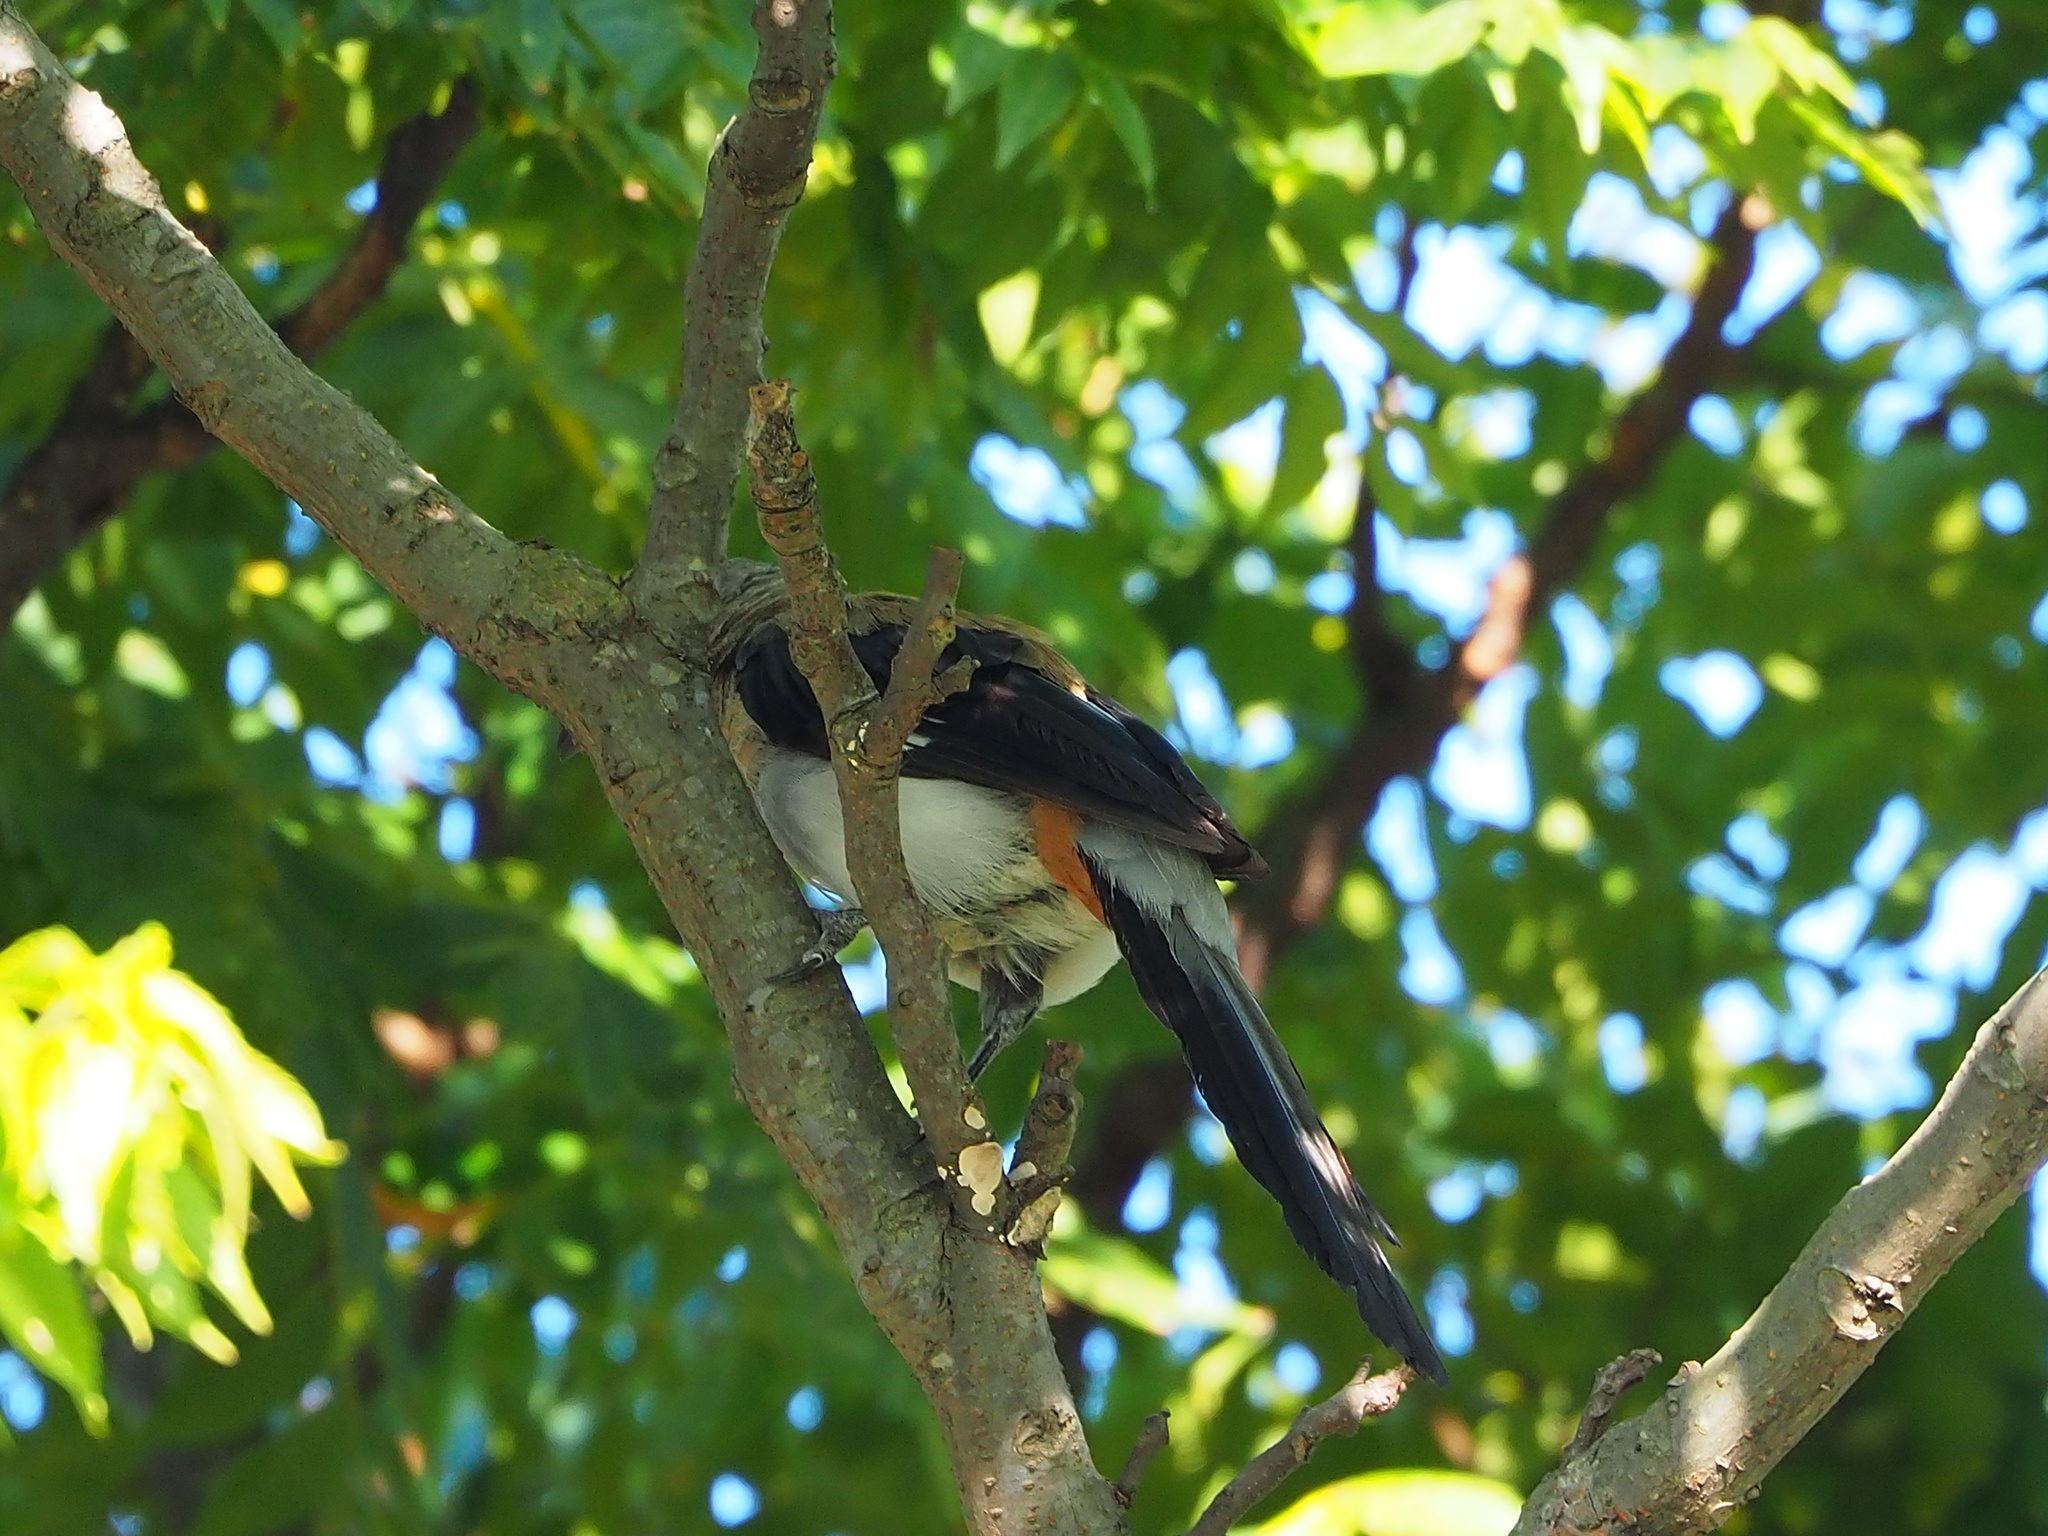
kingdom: Animalia
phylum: Chordata
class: Aves
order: Passeriformes
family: Corvidae
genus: Dendrocitta
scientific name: Dendrocitta formosae
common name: Grey treepie
